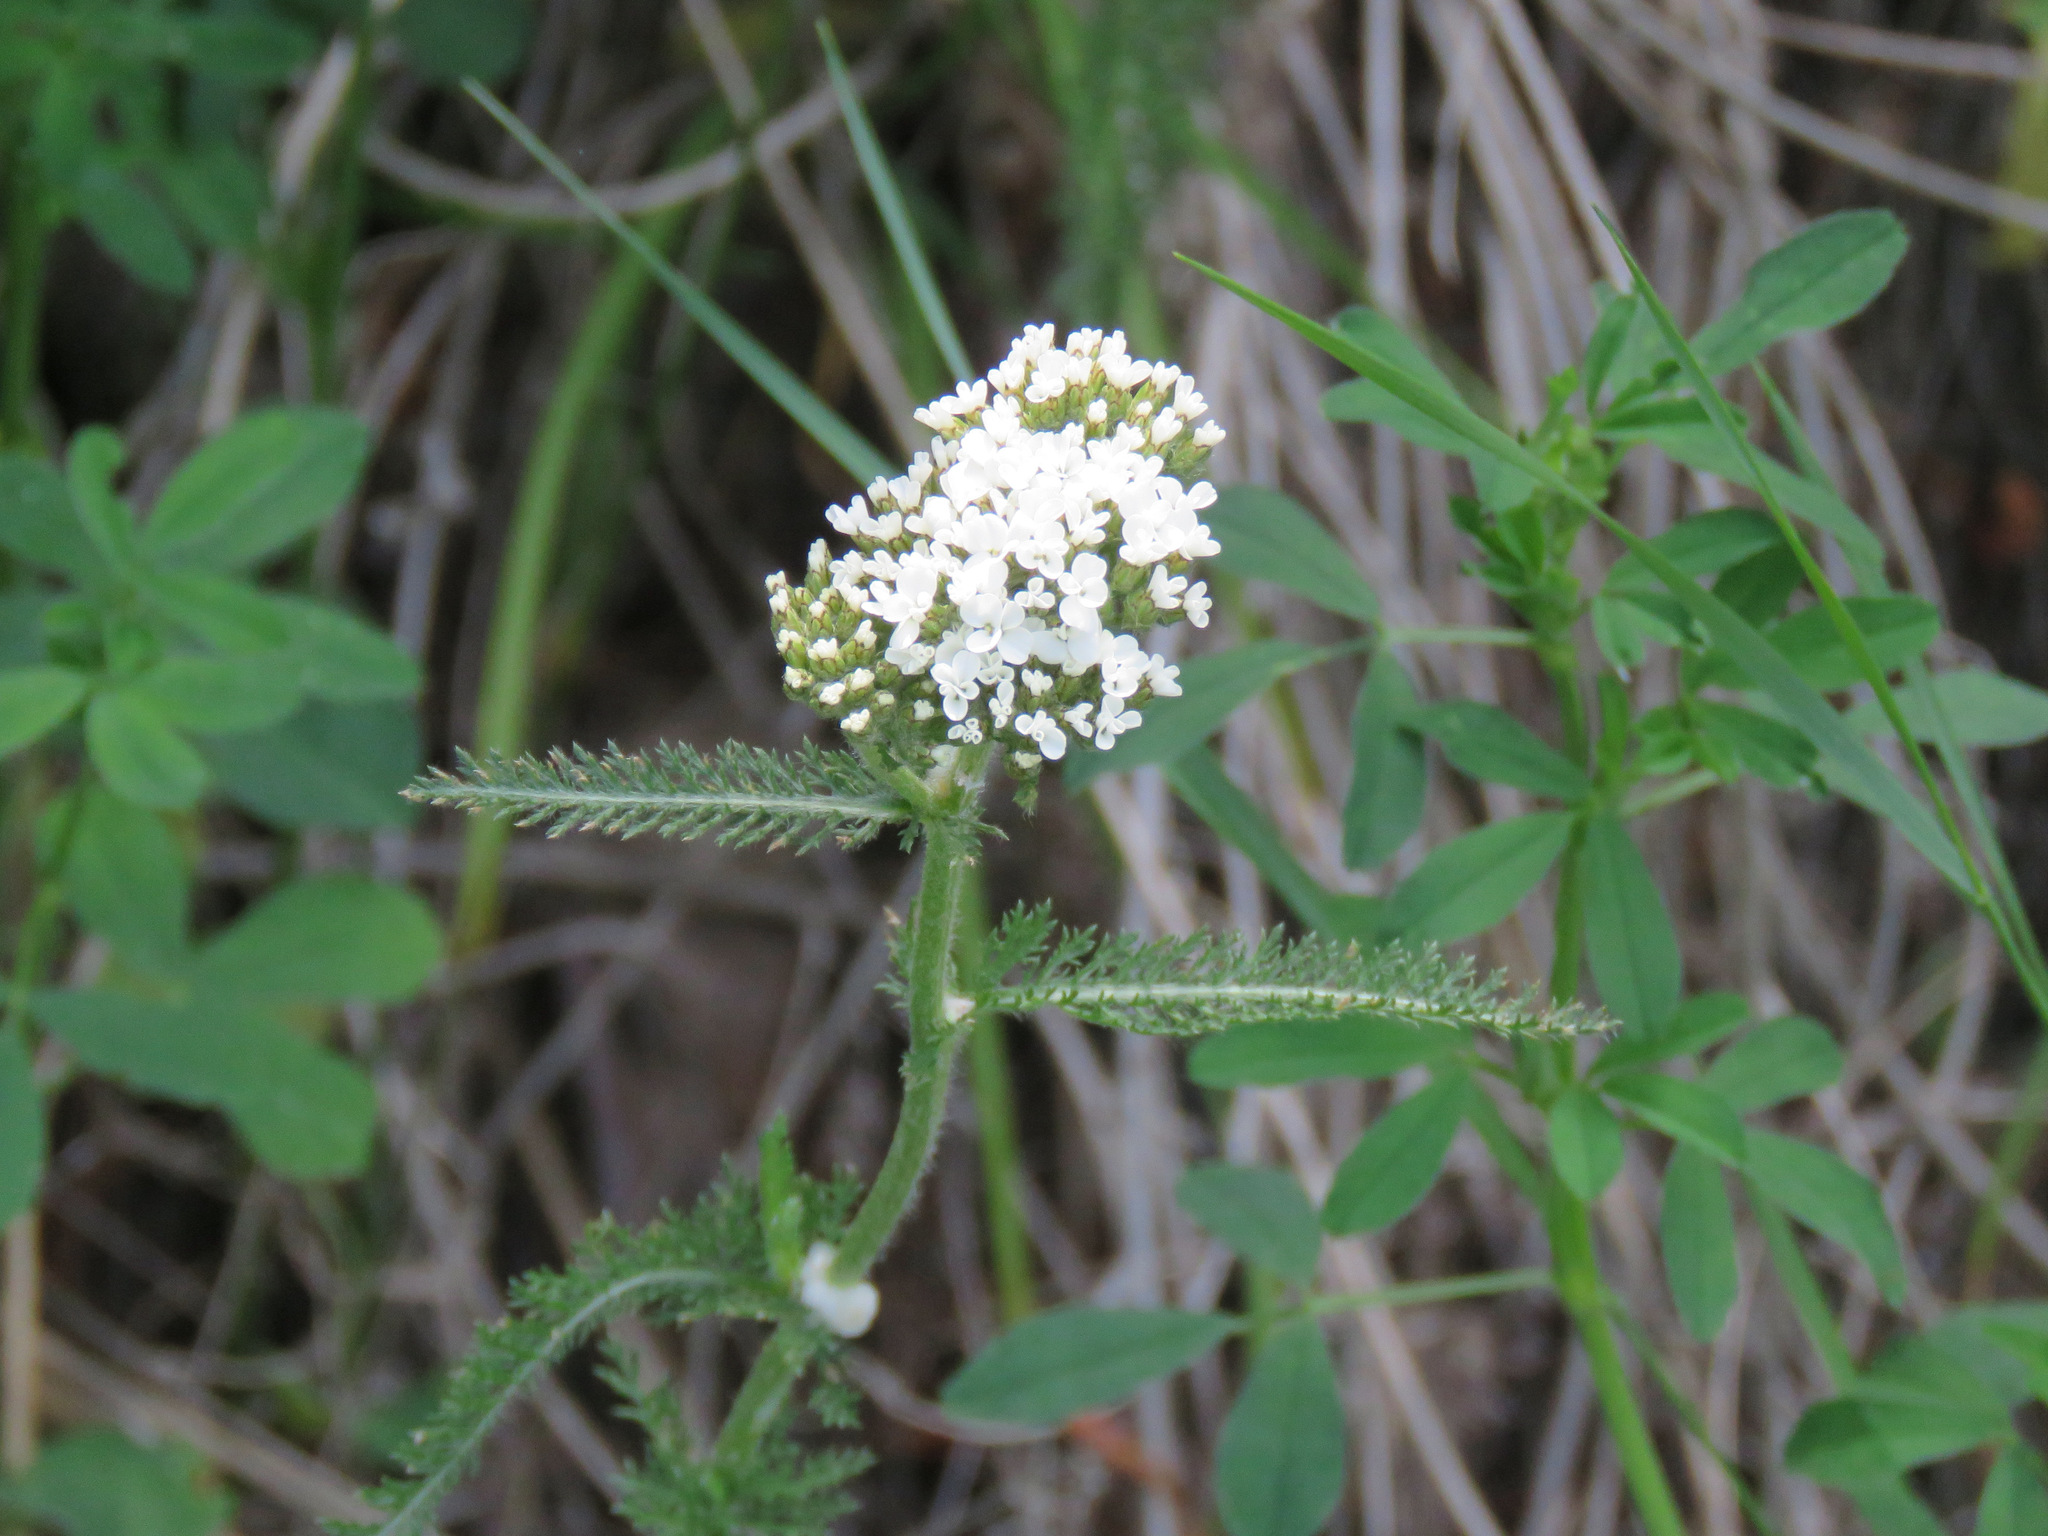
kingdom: Plantae
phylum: Tracheophyta
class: Magnoliopsida
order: Asterales
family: Asteraceae
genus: Achillea
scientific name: Achillea millefolium
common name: Yarrow
